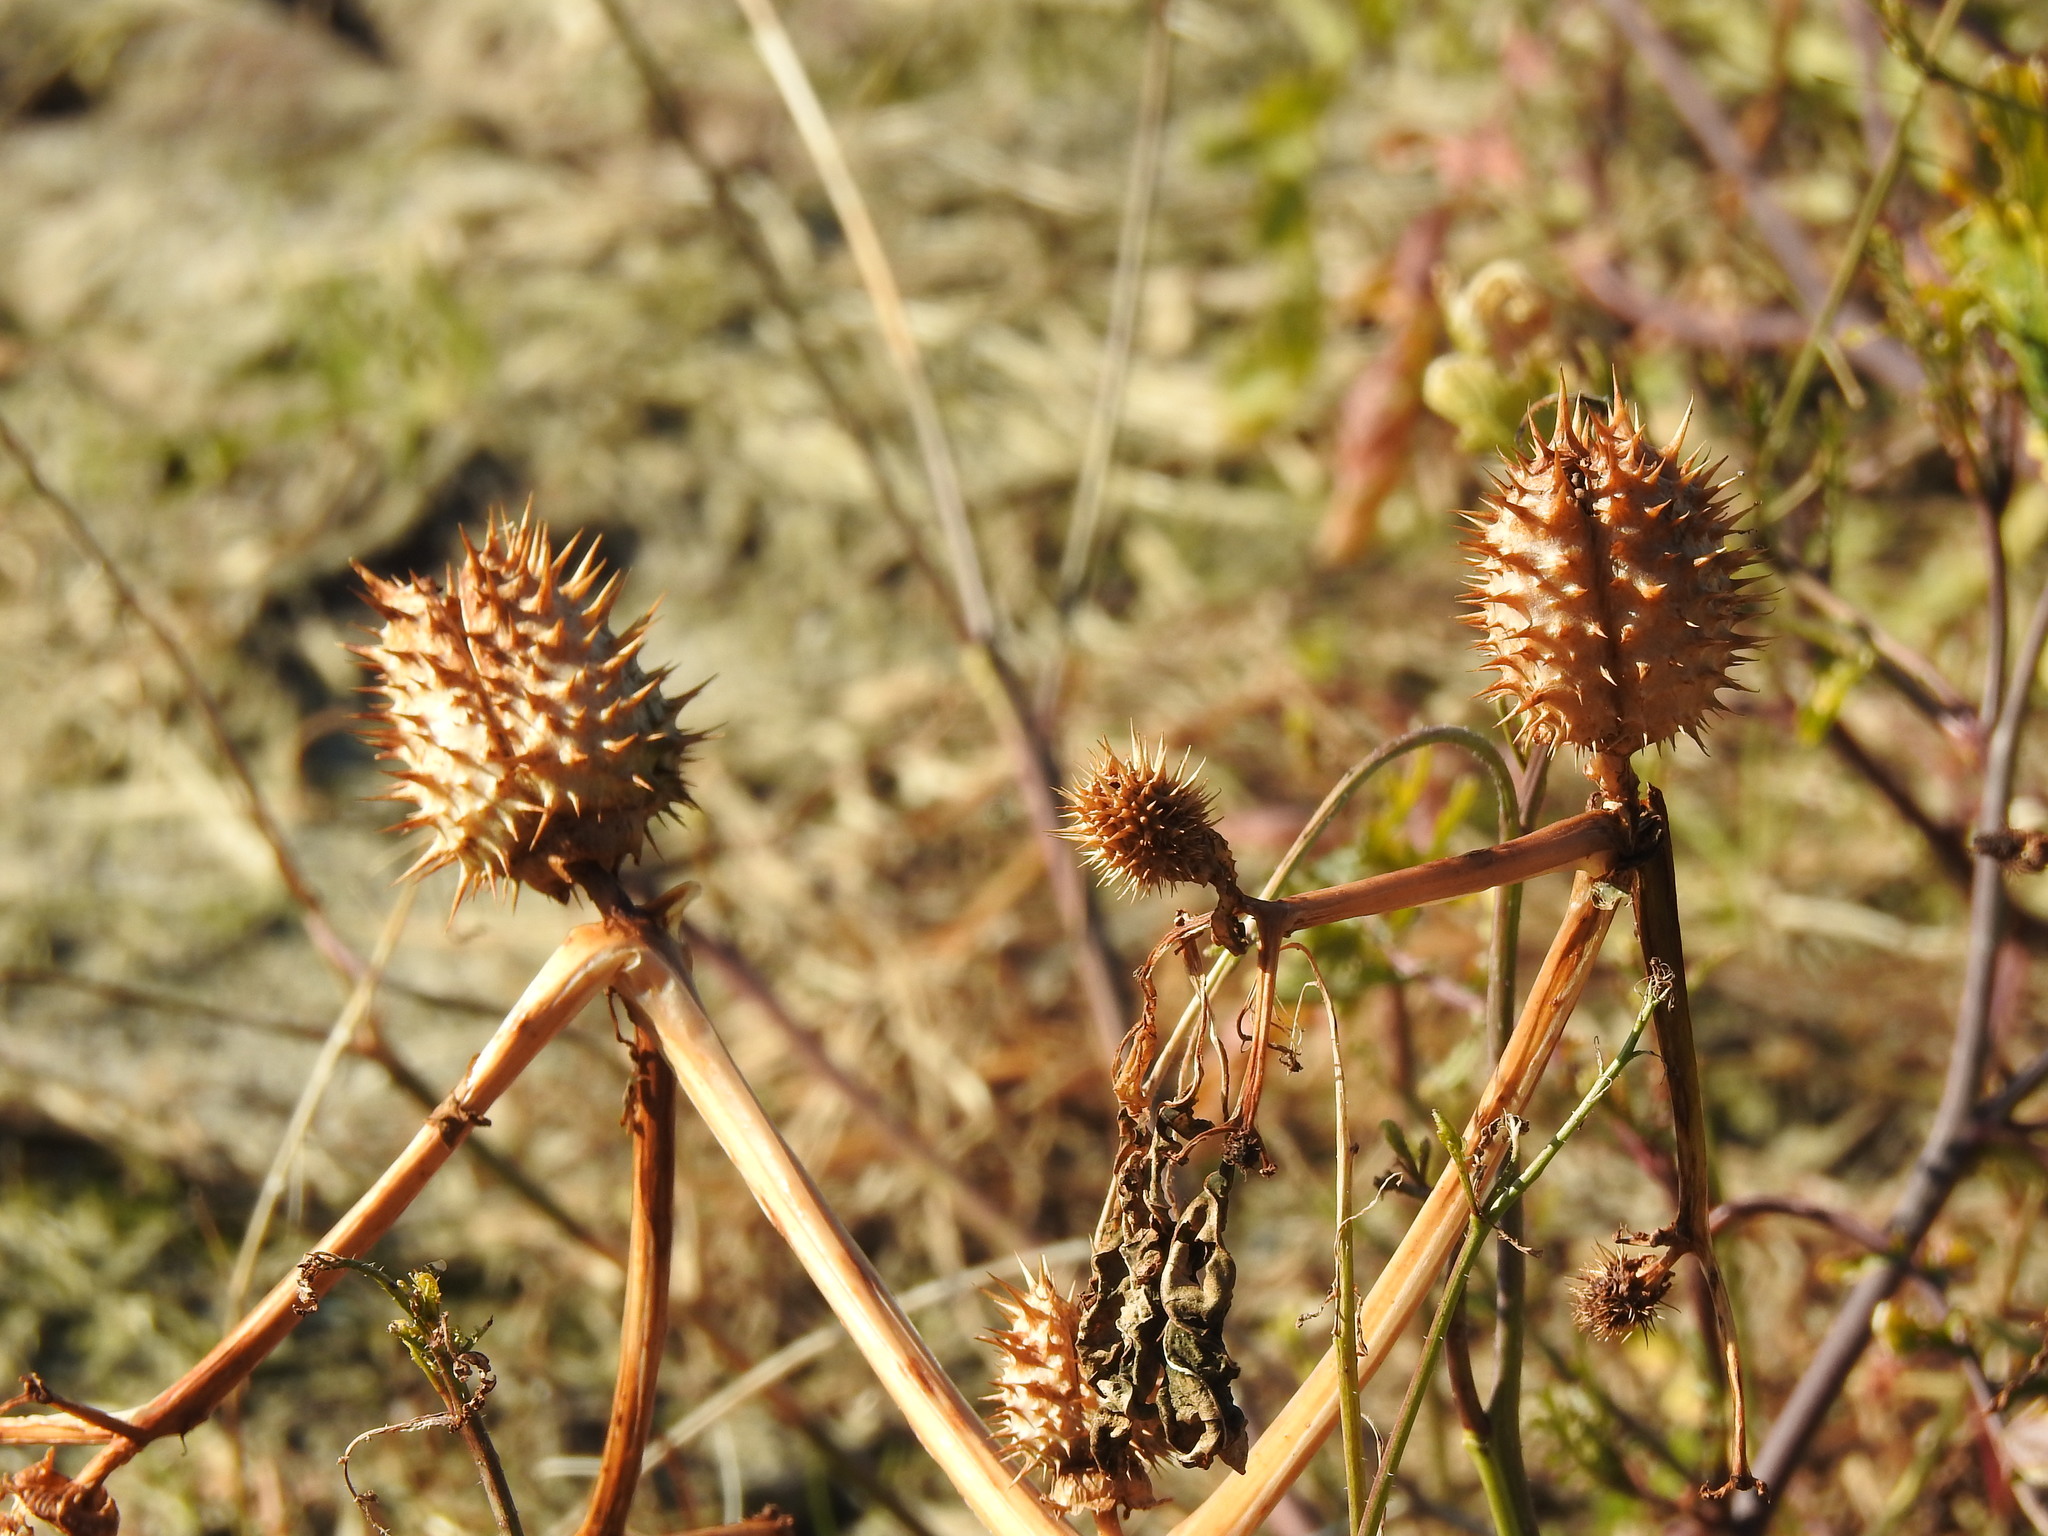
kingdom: Plantae
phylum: Tracheophyta
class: Magnoliopsida
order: Solanales
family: Solanaceae
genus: Datura
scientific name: Datura stramonium
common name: Thorn-apple
